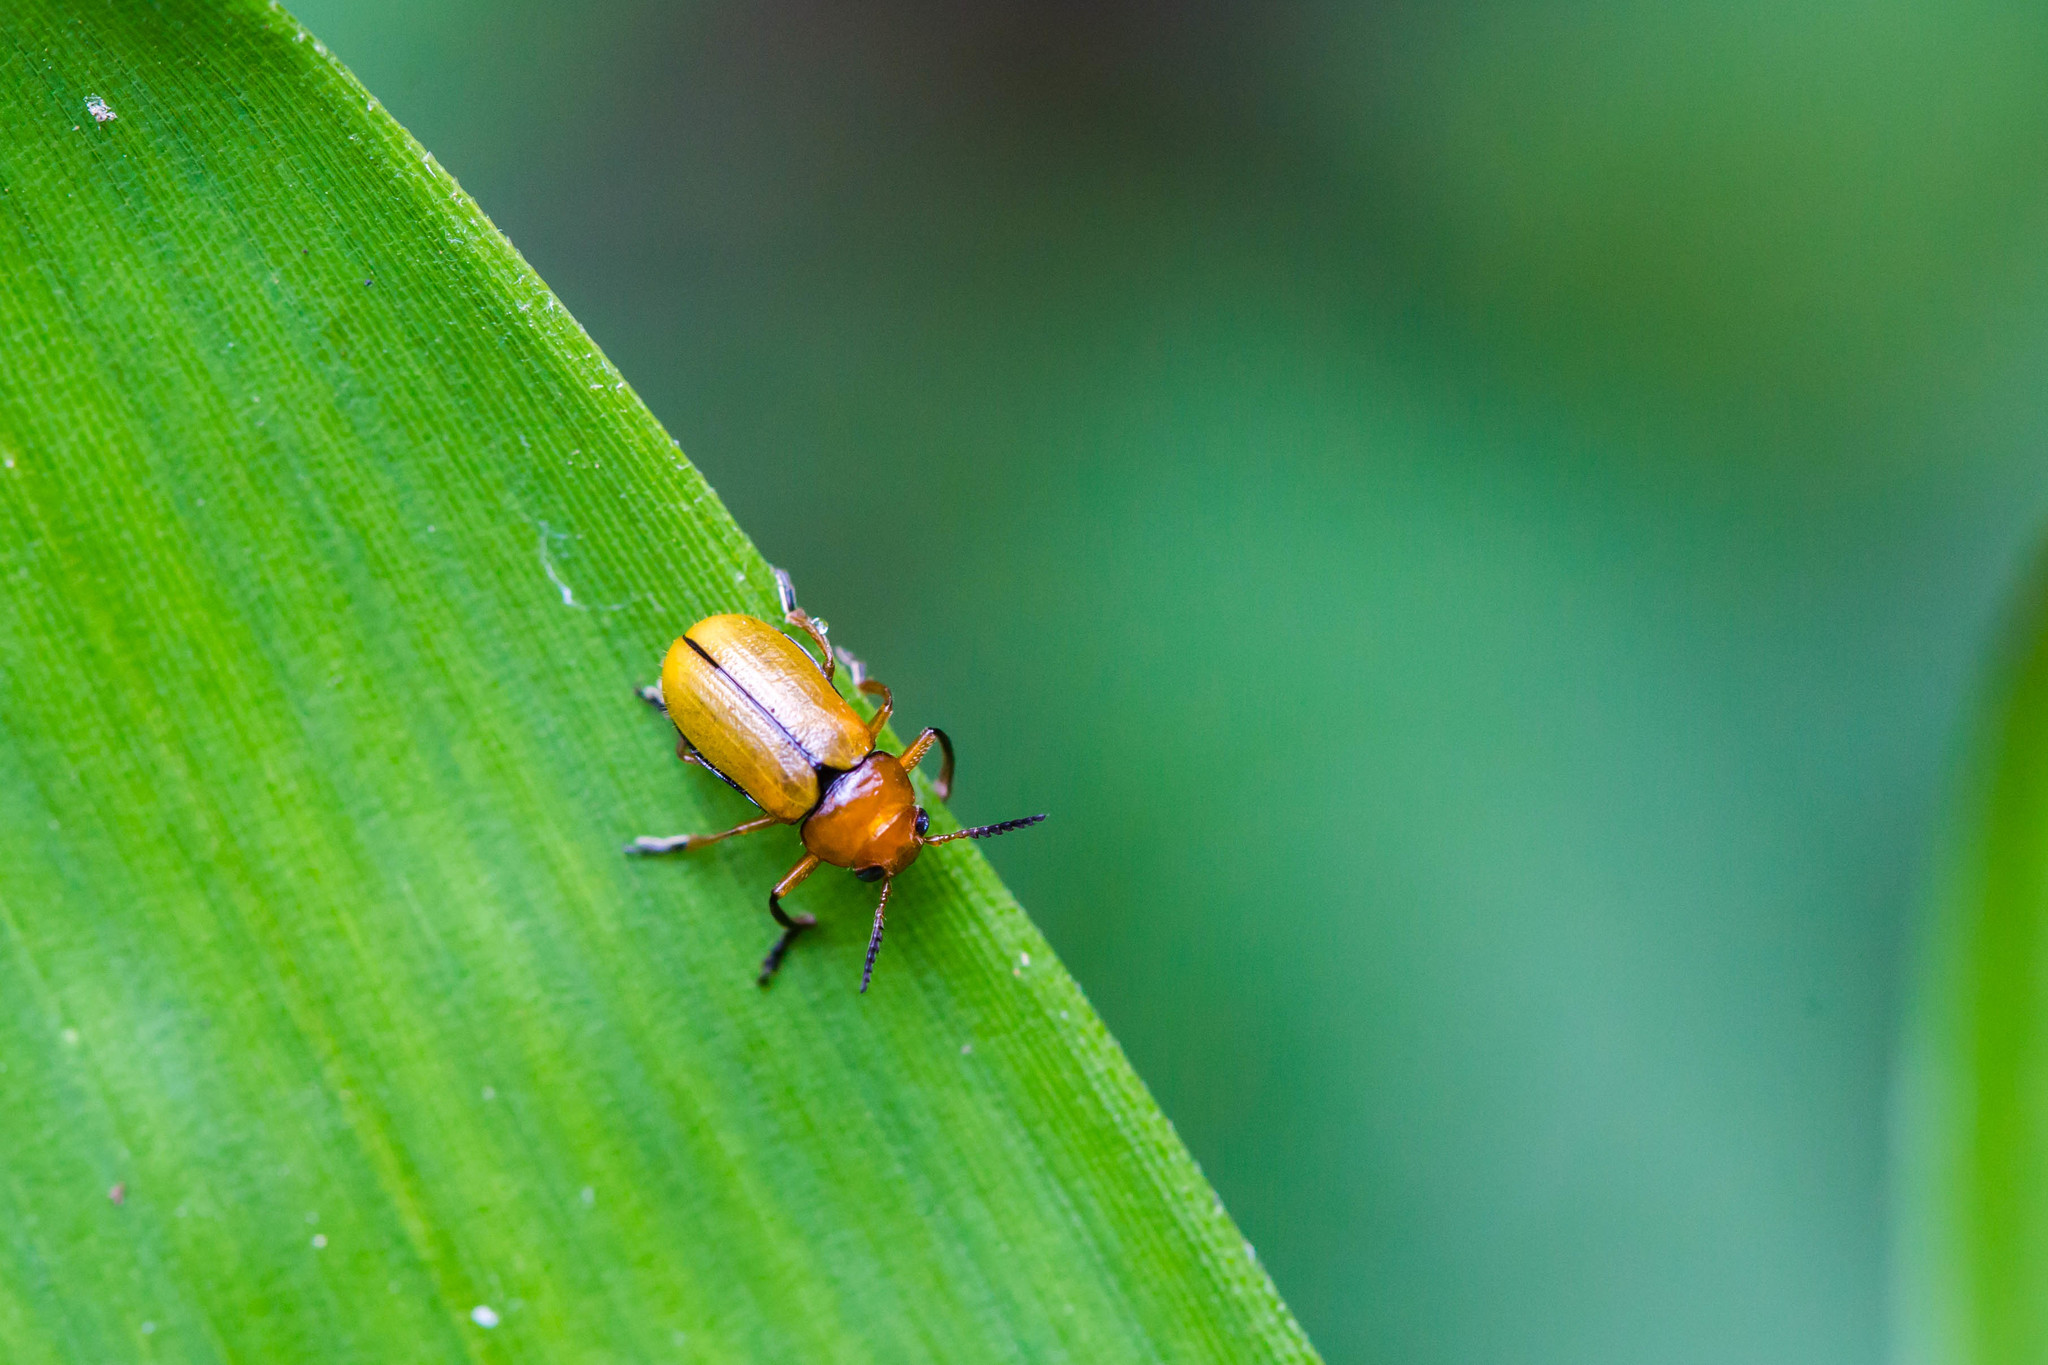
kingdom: Animalia
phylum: Arthropoda
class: Insecta
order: Coleoptera
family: Chrysomelidae
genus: Anomoea
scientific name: Anomoea laticlavia
